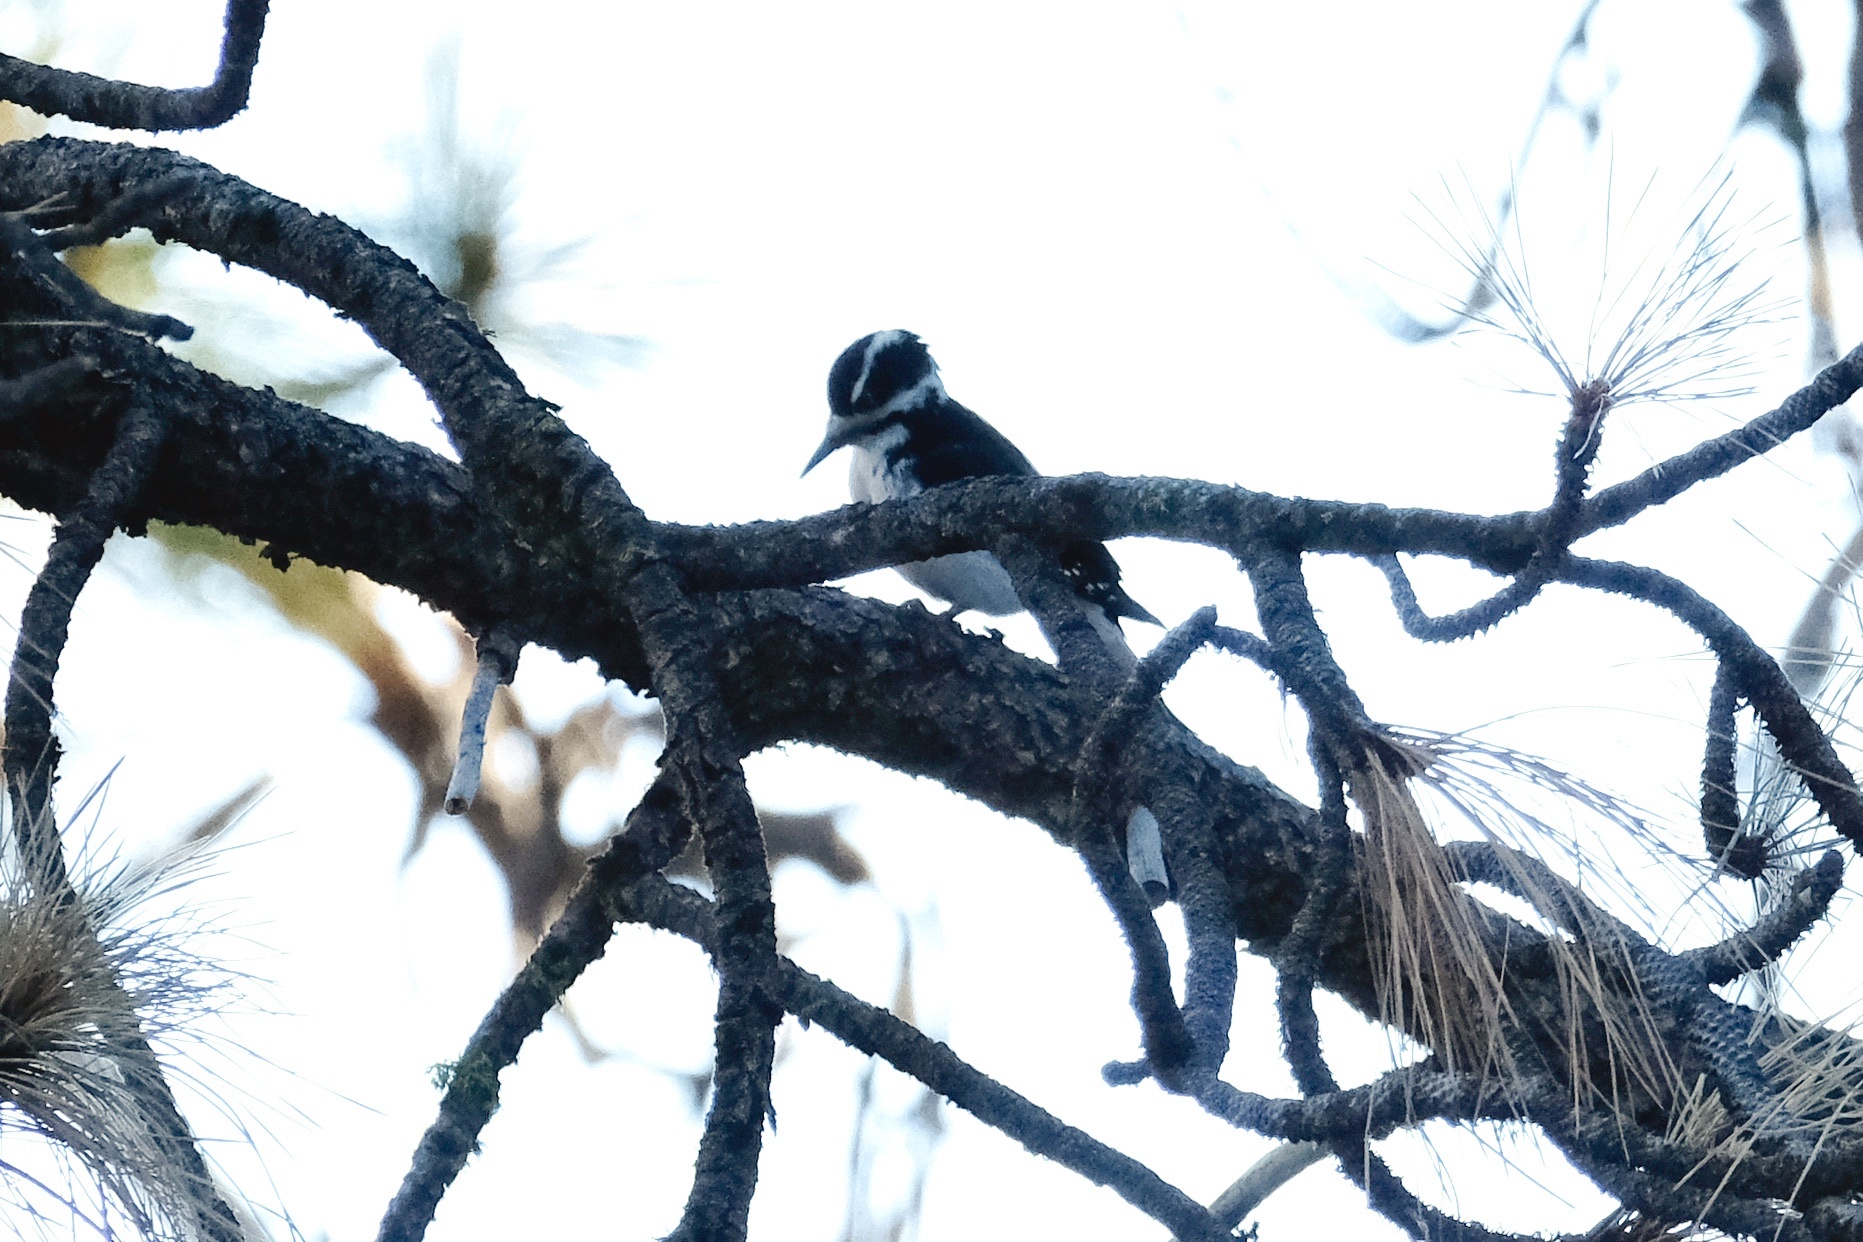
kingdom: Animalia
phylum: Chordata
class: Aves
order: Piciformes
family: Picidae
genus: Leuconotopicus
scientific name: Leuconotopicus villosus
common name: Hairy woodpecker
